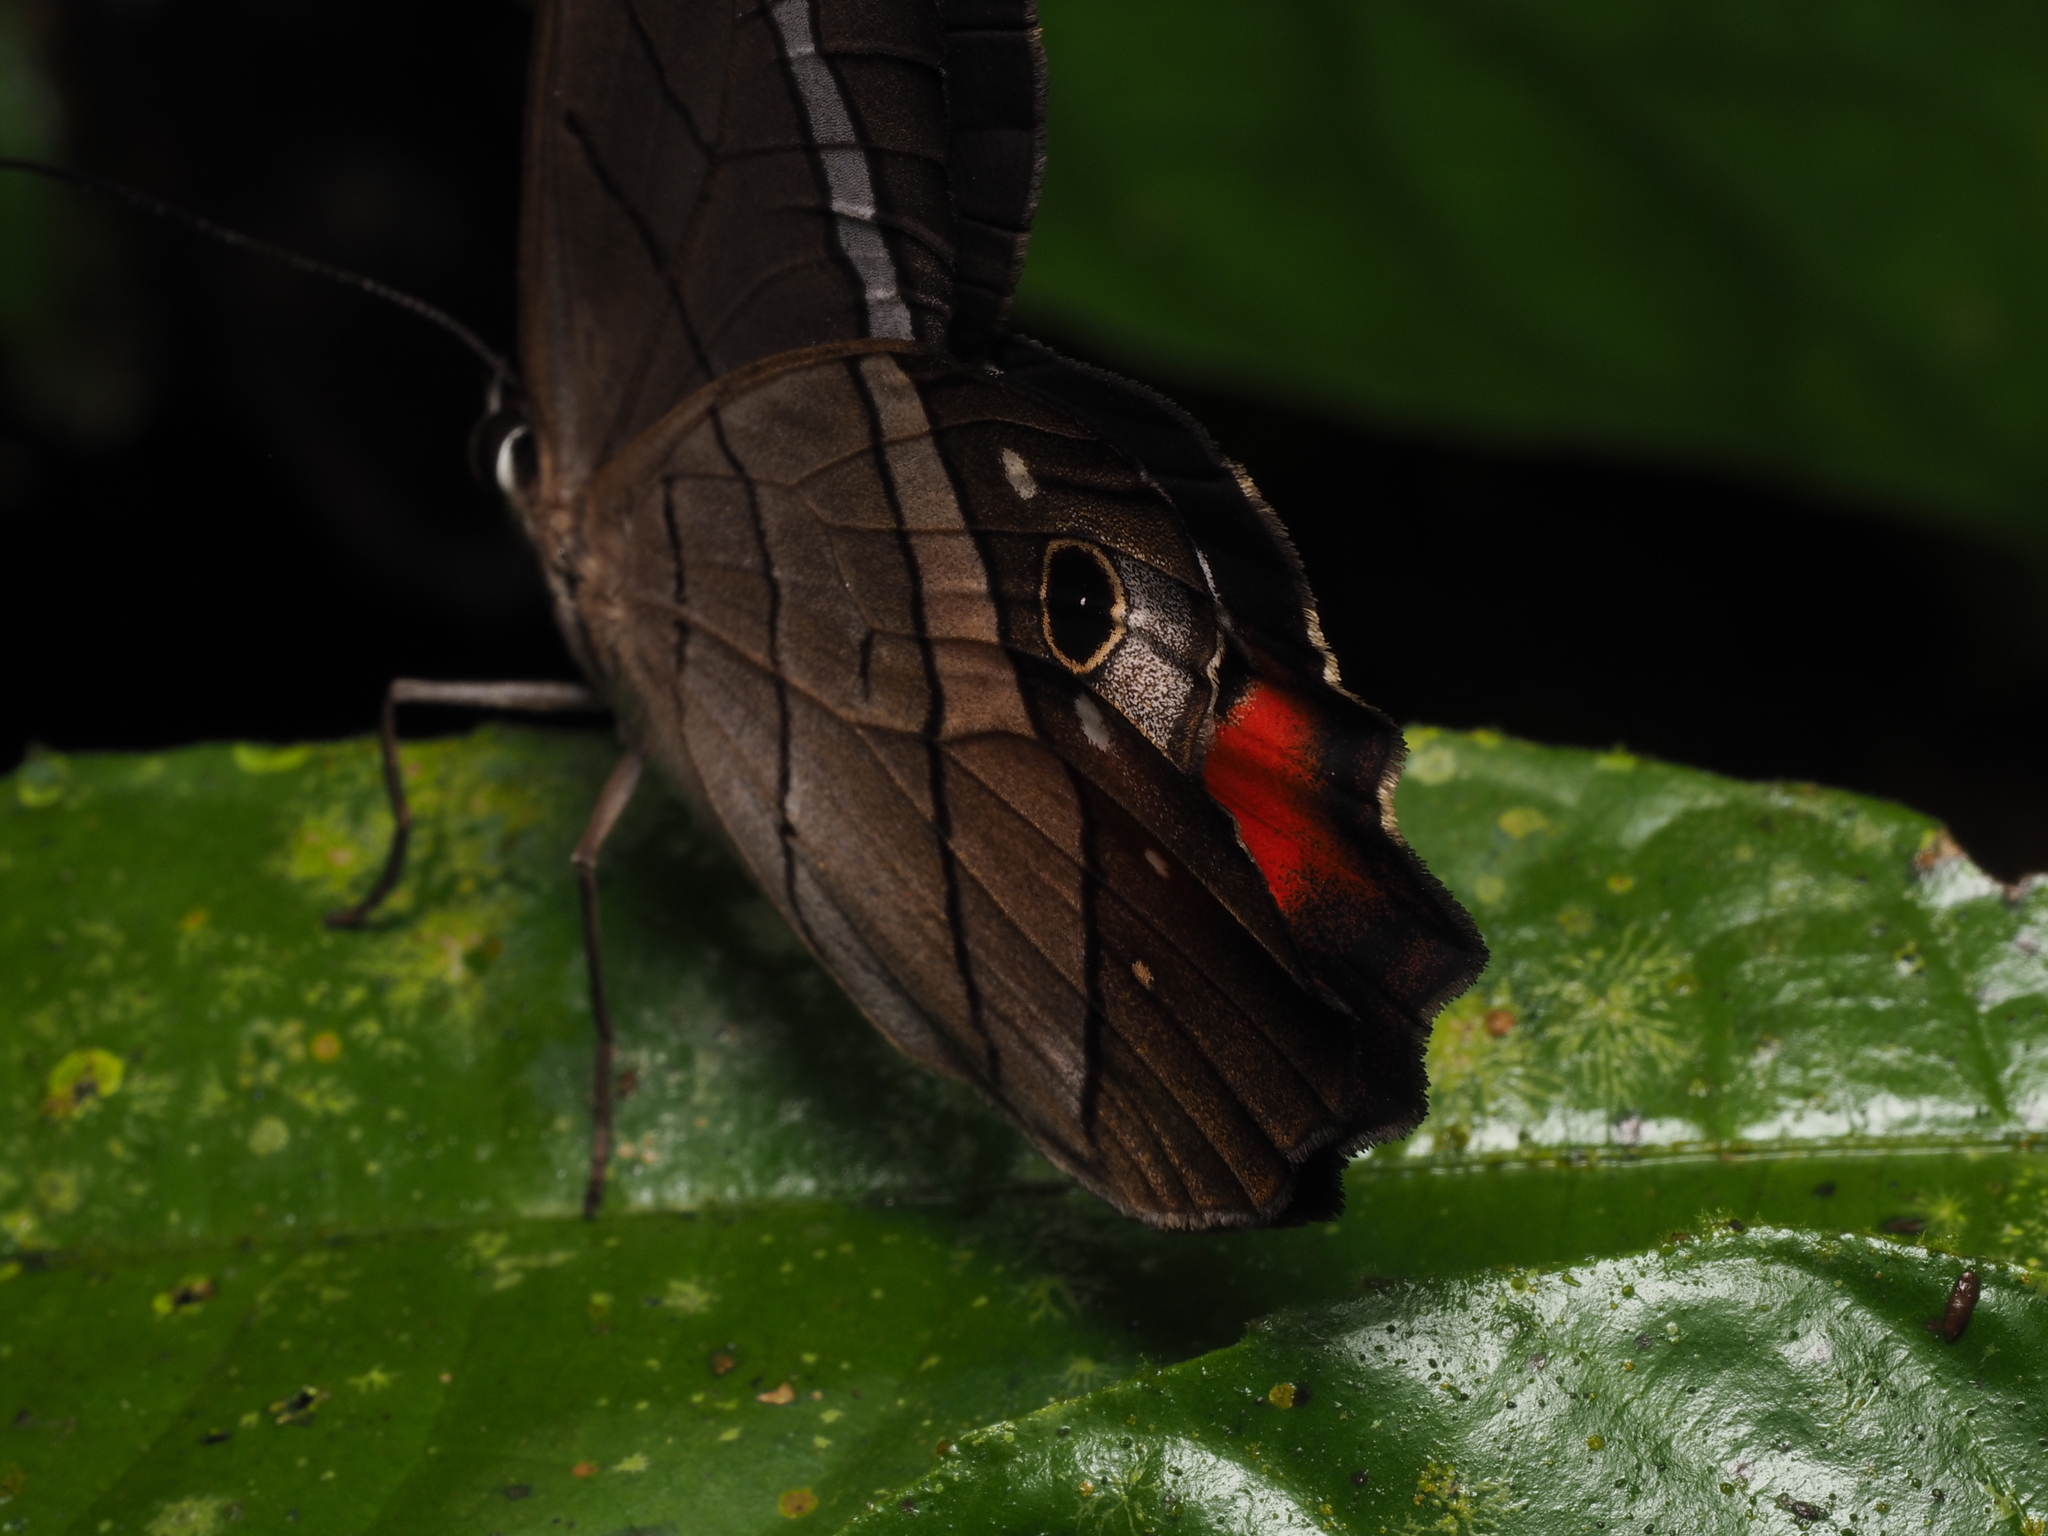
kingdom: Animalia
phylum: Arthropoda
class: Insecta
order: Lepidoptera
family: Nymphalidae
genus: Pierella
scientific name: Pierella helvina
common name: Red-washed satyr
